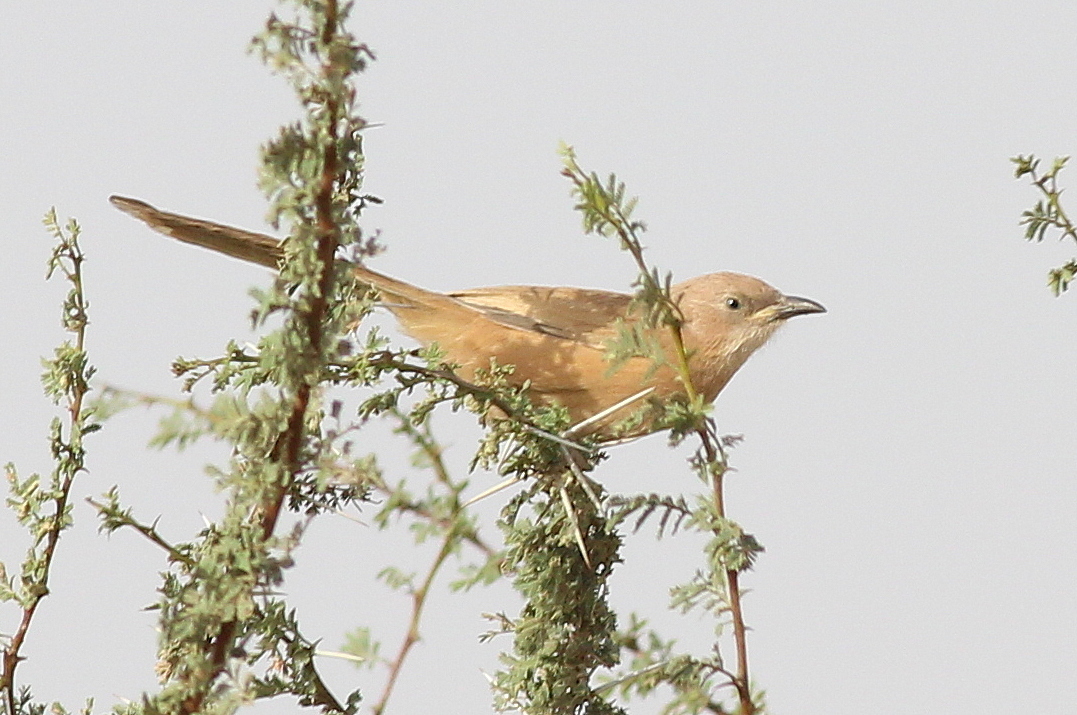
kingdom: Animalia
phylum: Chordata
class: Aves
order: Passeriformes
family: Leiothrichidae
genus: Turdoides
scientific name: Turdoides fulva
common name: Fulvous babbler
